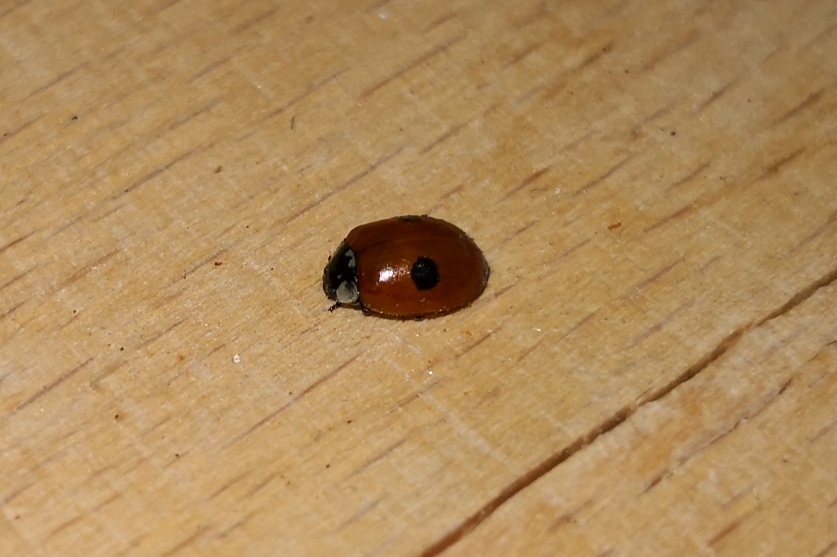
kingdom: Animalia
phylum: Arthropoda
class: Insecta
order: Coleoptera
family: Coccinellidae
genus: Adalia
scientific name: Adalia bipunctata
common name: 2-spot ladybird
